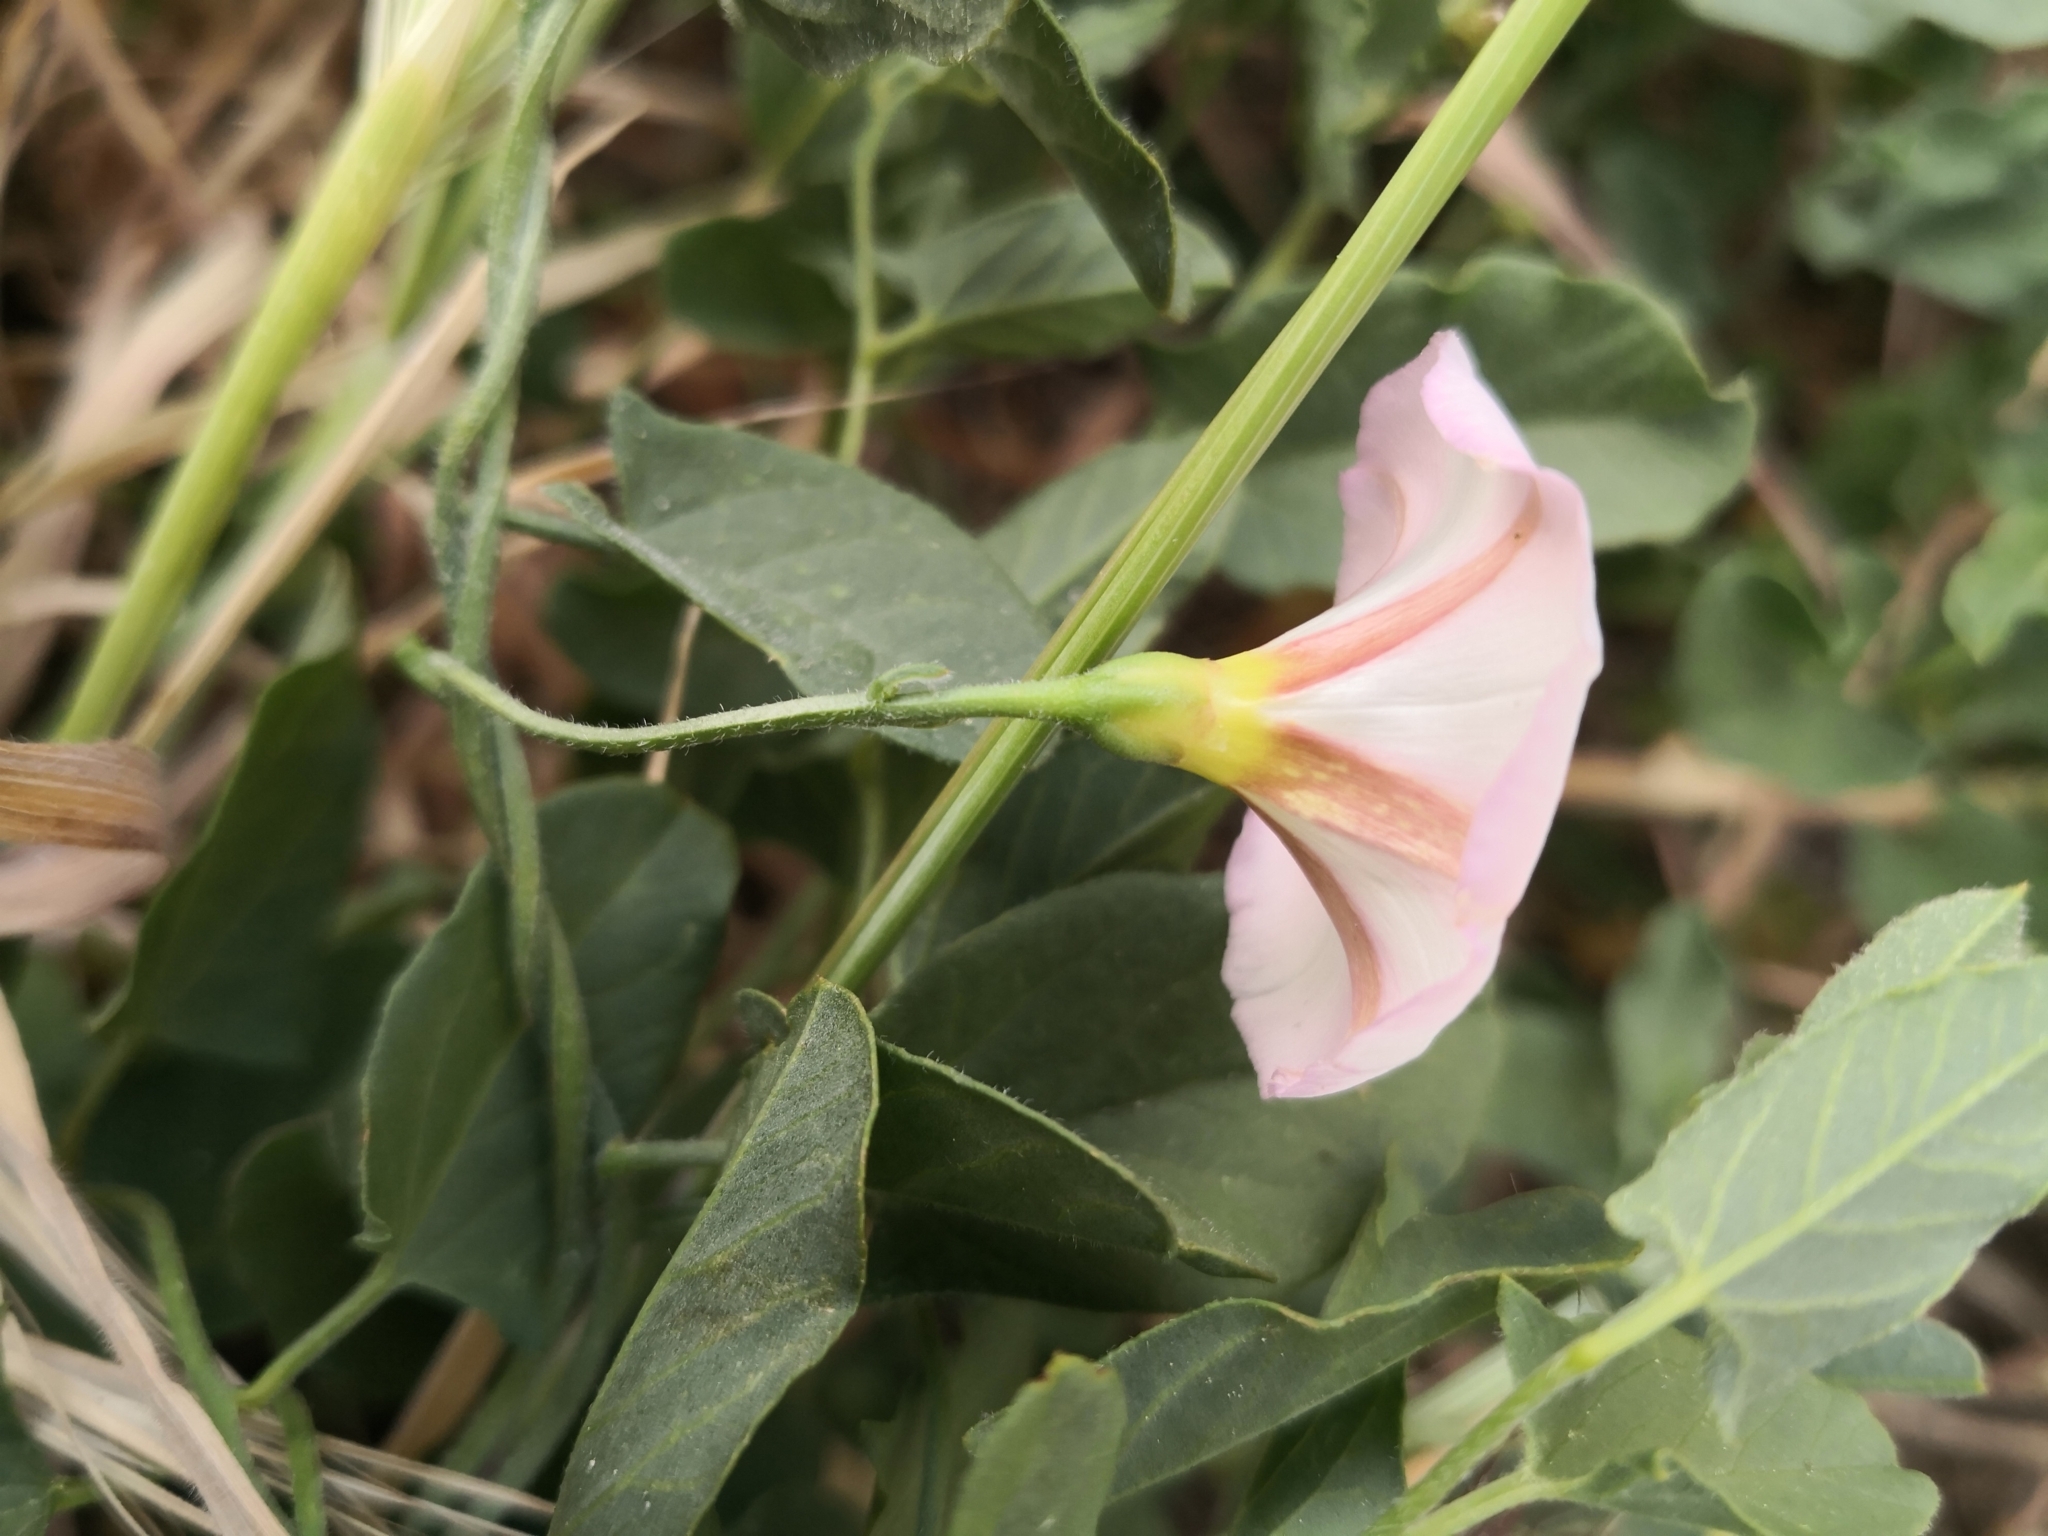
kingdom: Plantae
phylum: Tracheophyta
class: Magnoliopsida
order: Solanales
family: Convolvulaceae
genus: Convolvulus
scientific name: Convolvulus arvensis
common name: Field bindweed
